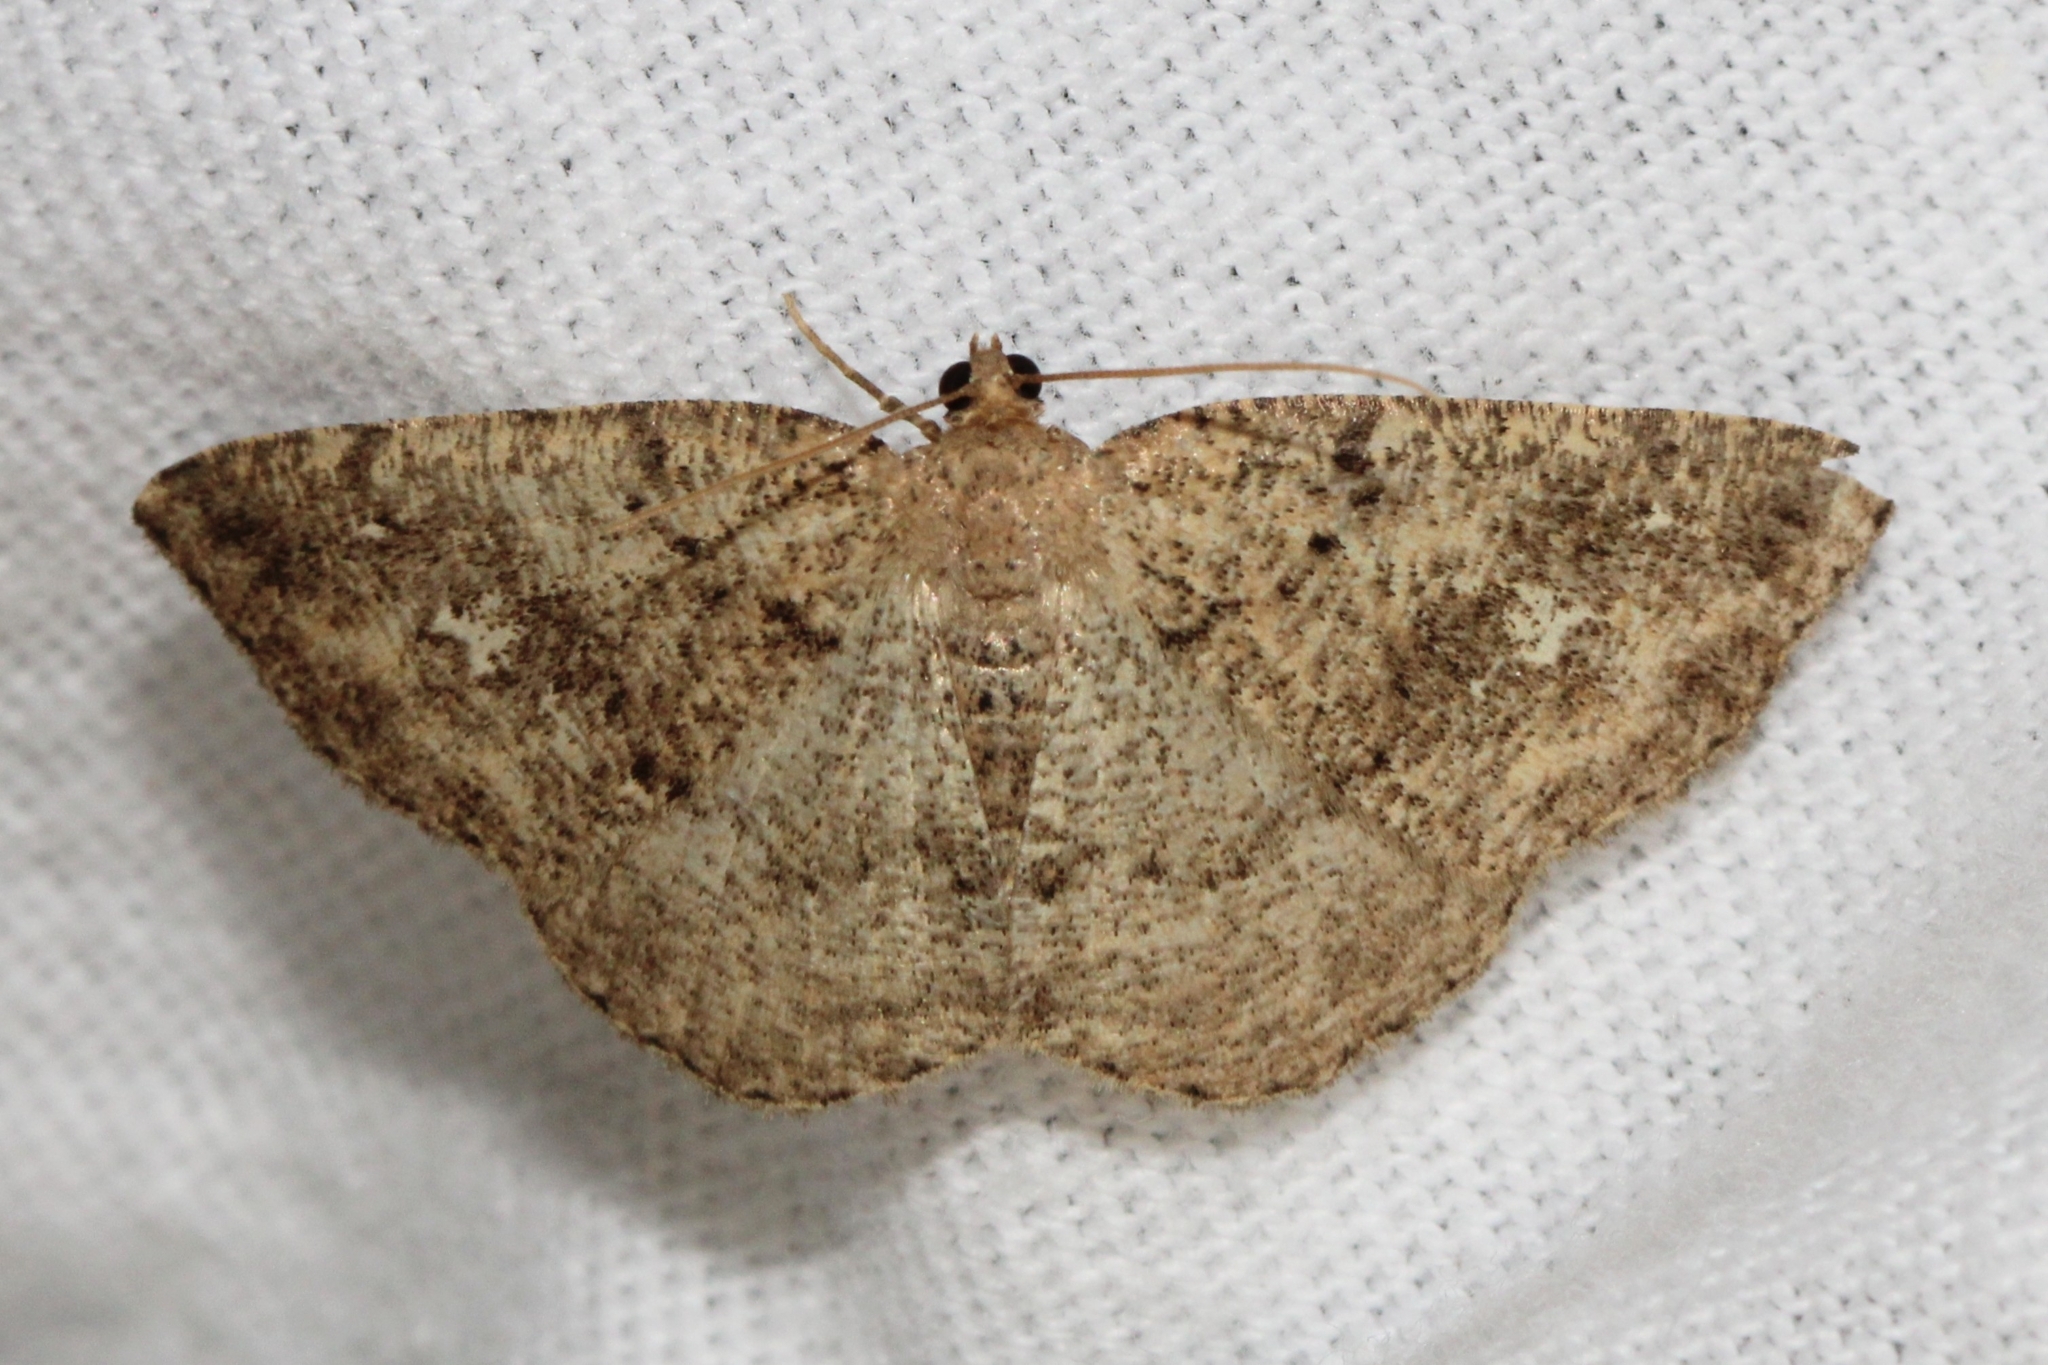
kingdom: Animalia
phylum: Arthropoda
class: Insecta
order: Lepidoptera
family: Geometridae
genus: Homochlodes
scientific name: Homochlodes fritillaria
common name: Pale homochlodes
